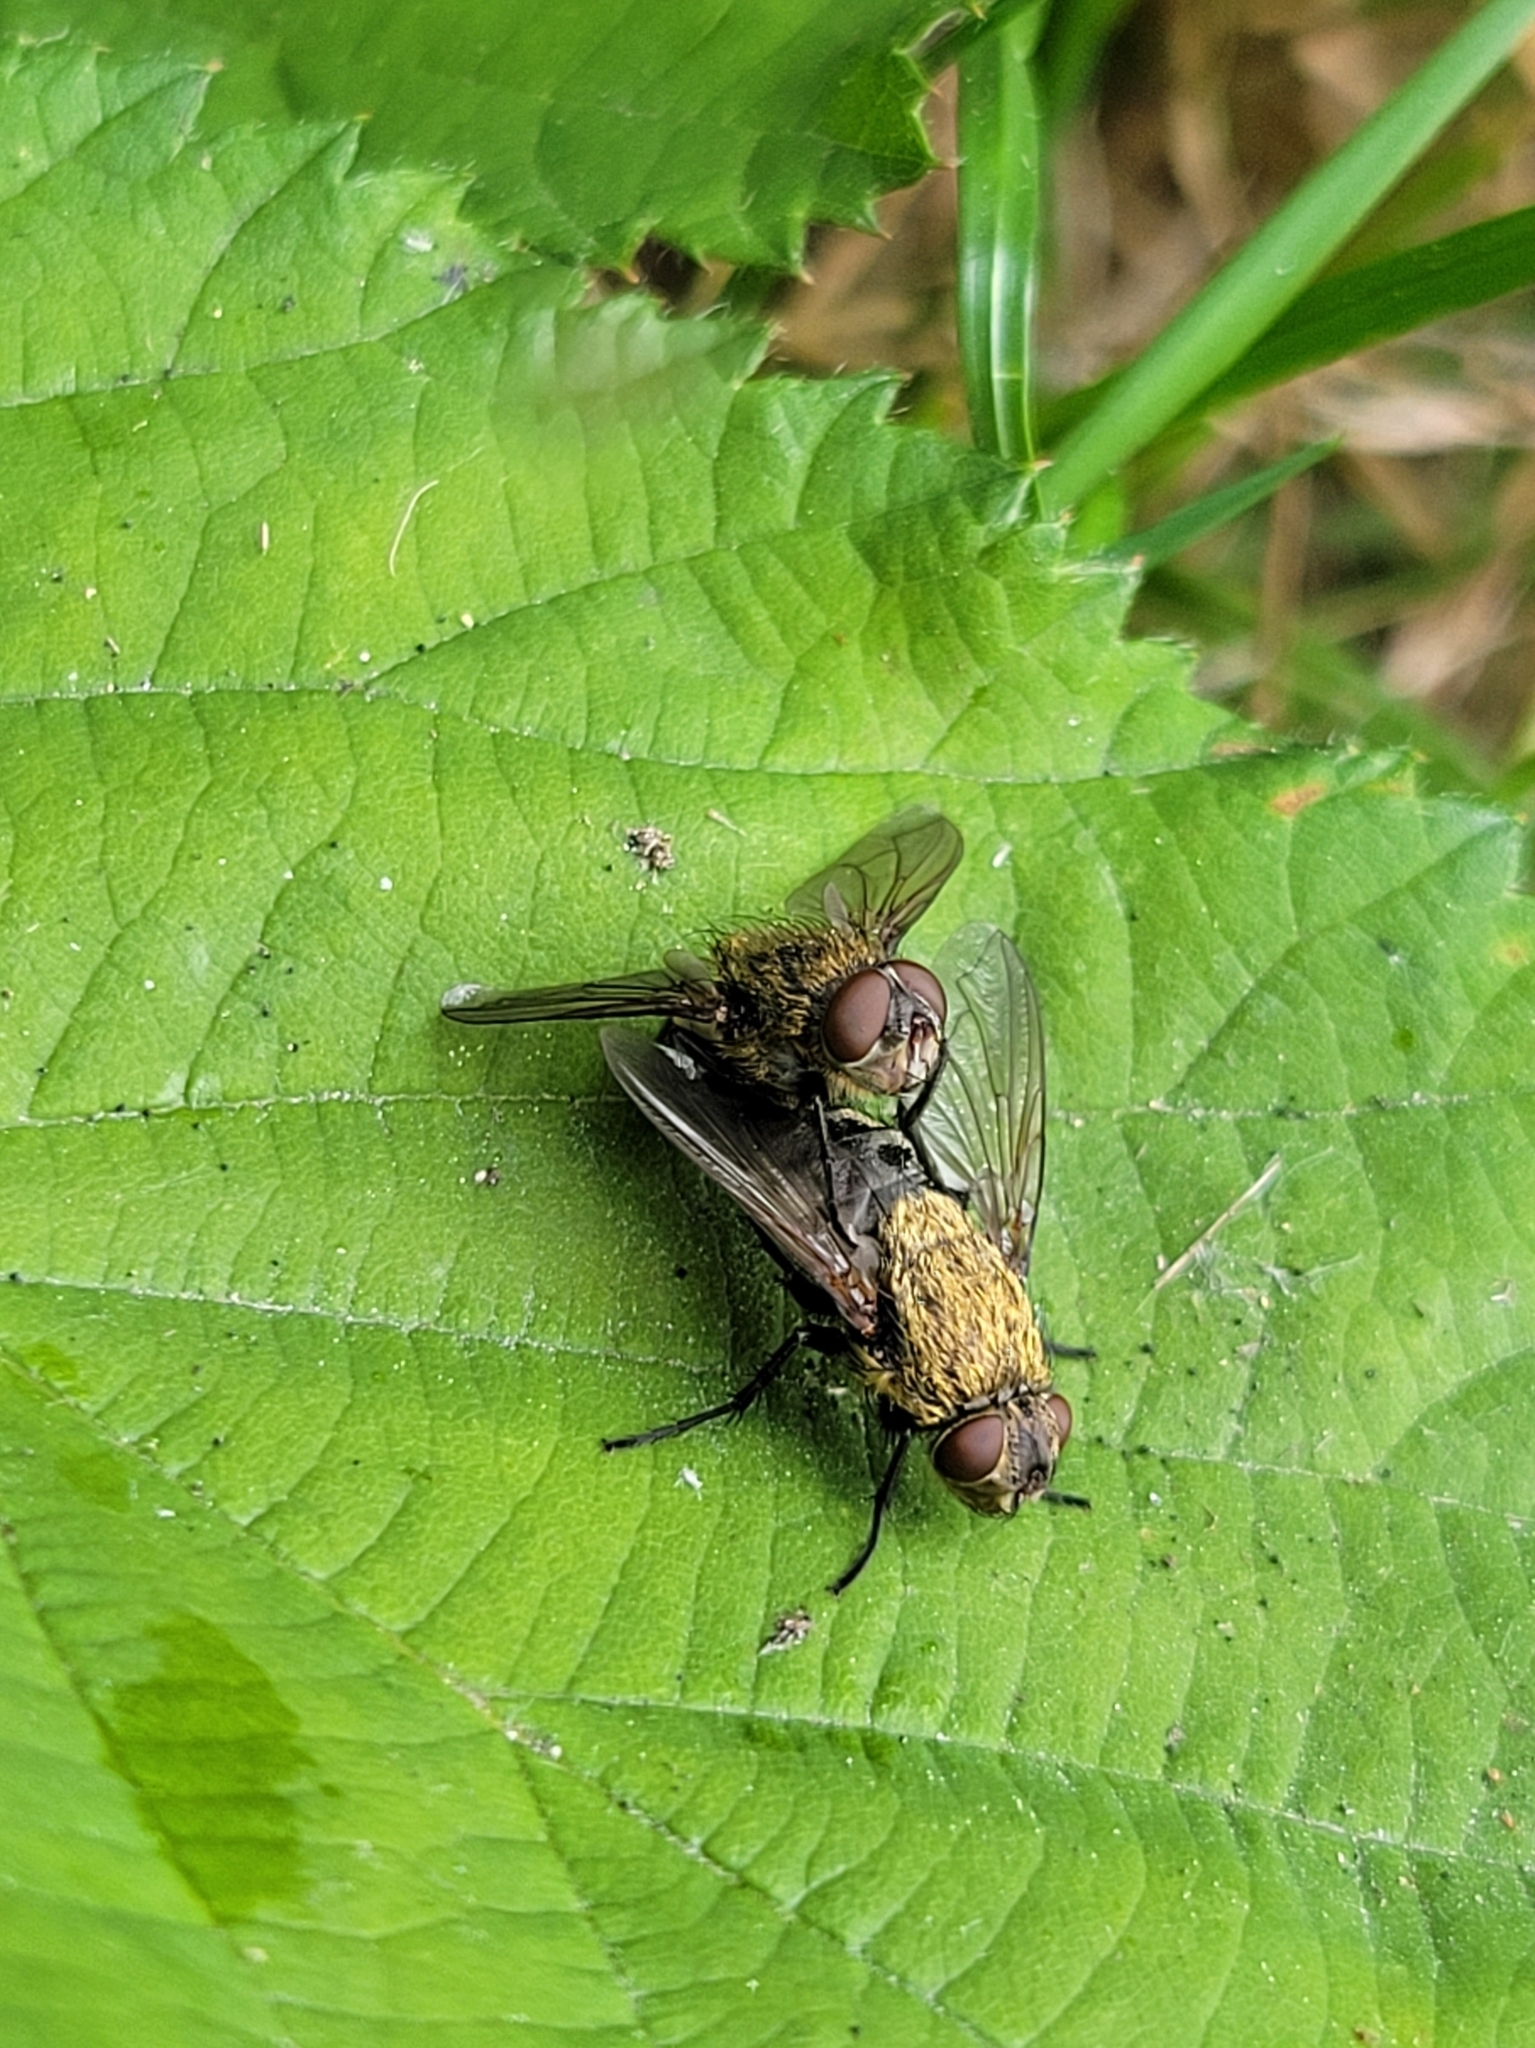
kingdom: Animalia
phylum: Arthropoda
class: Insecta
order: Diptera
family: Polleniidae
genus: Pollenia
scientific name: Pollenia
